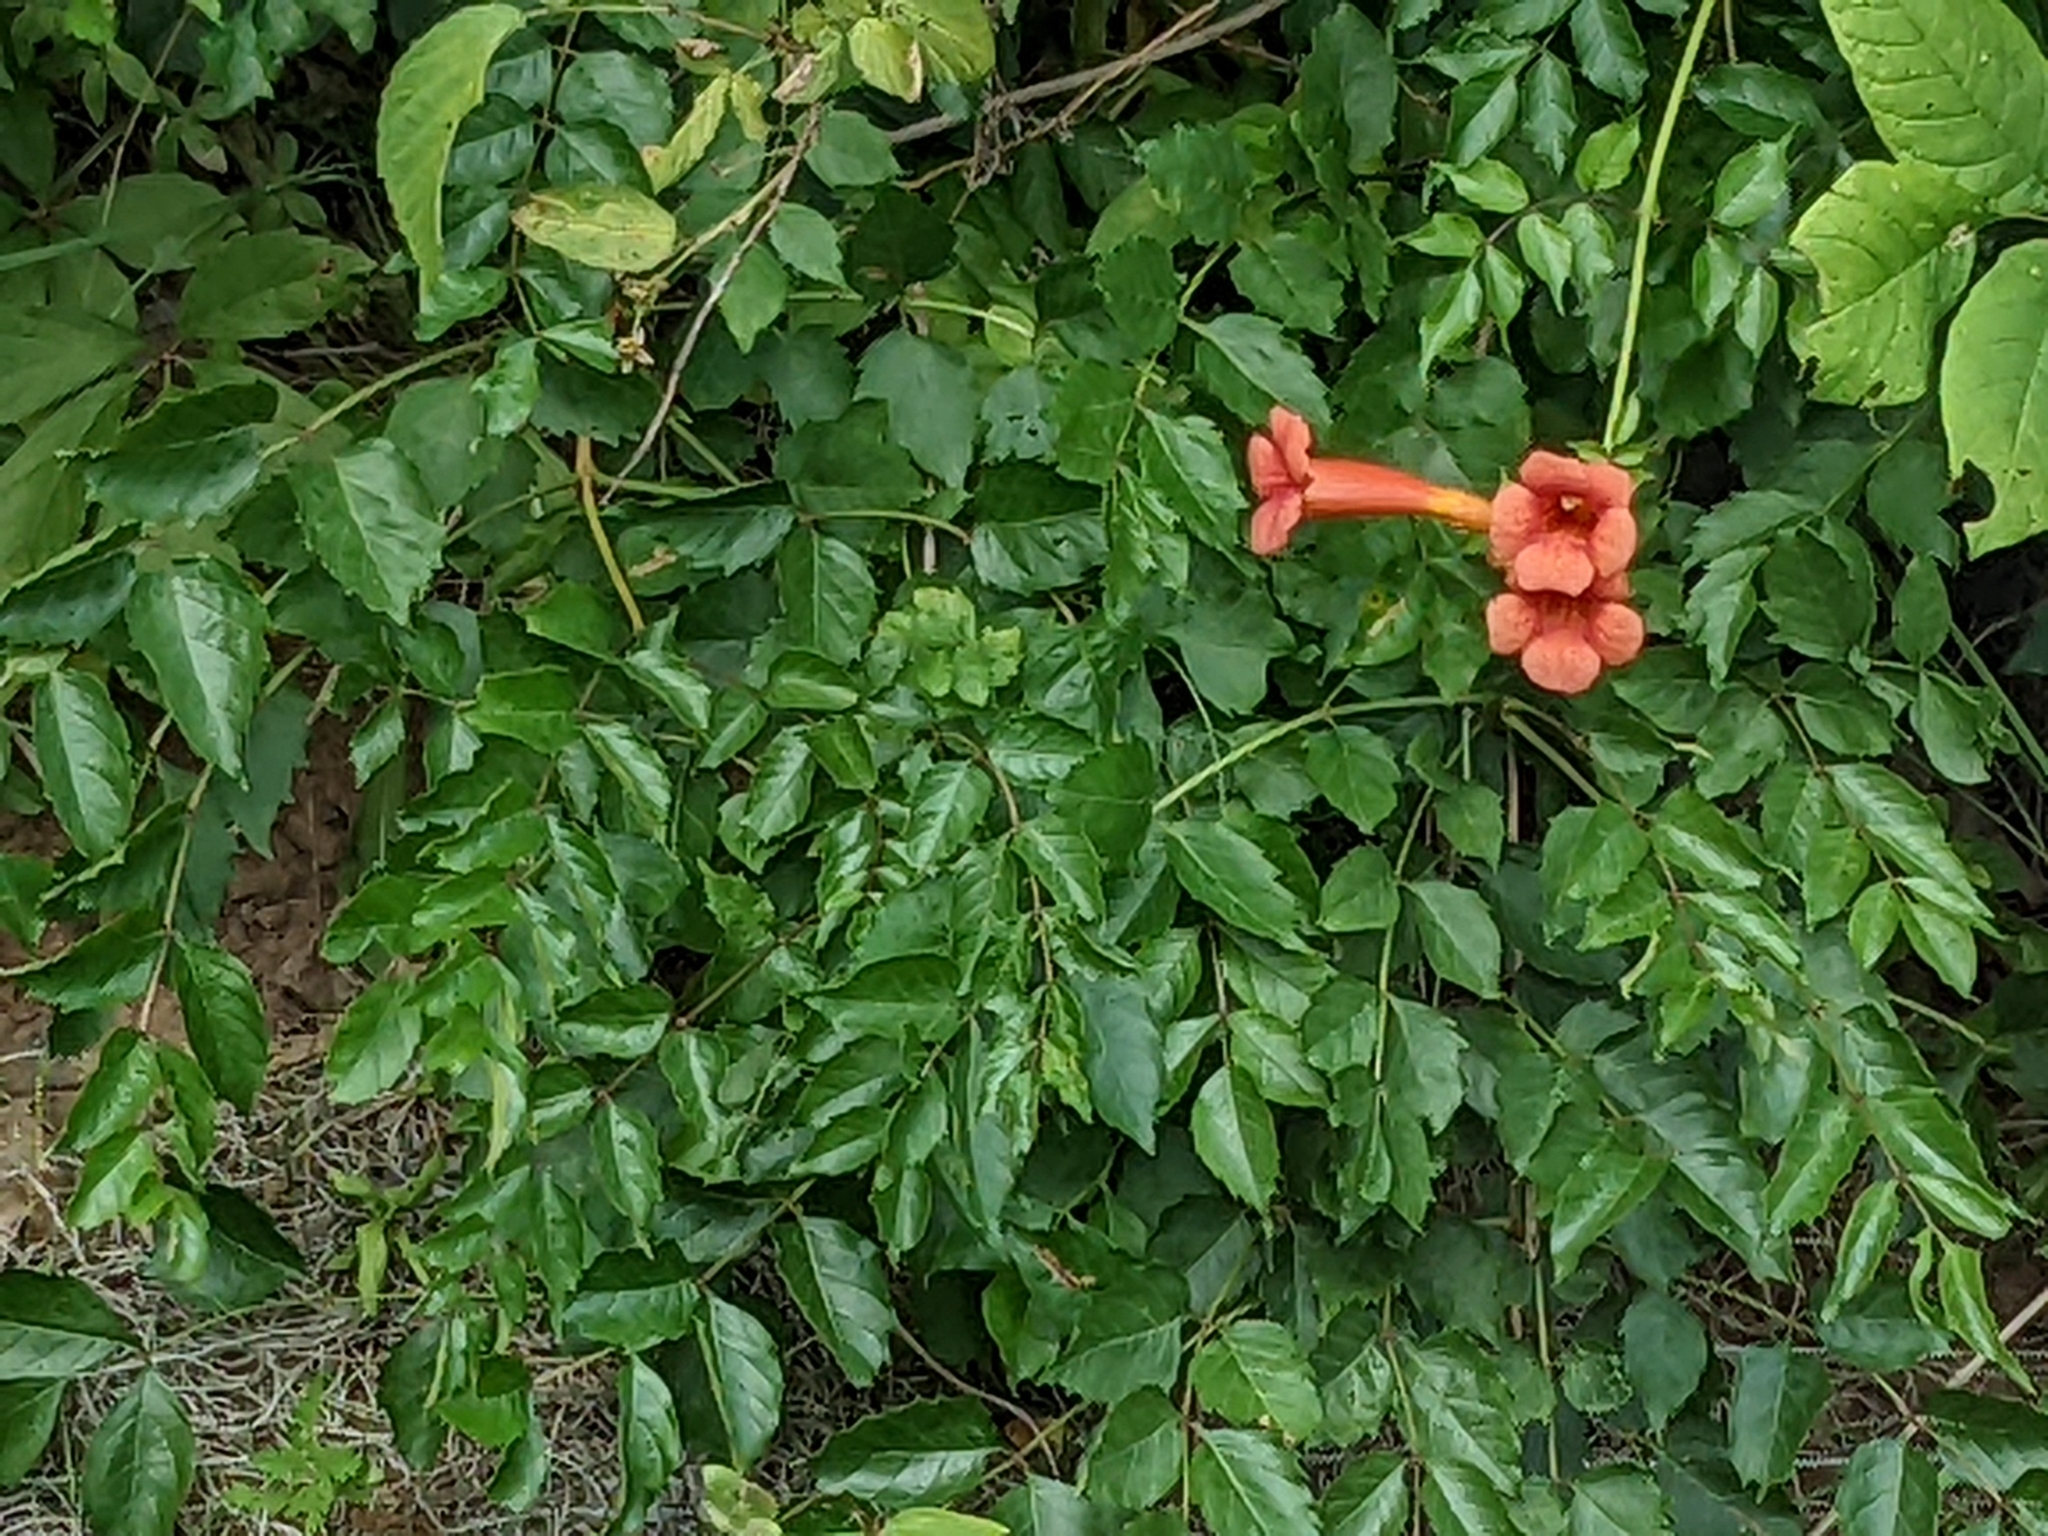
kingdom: Plantae
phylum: Tracheophyta
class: Magnoliopsida
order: Lamiales
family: Bignoniaceae
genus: Campsis
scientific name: Campsis radicans
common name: Trumpet-creeper
